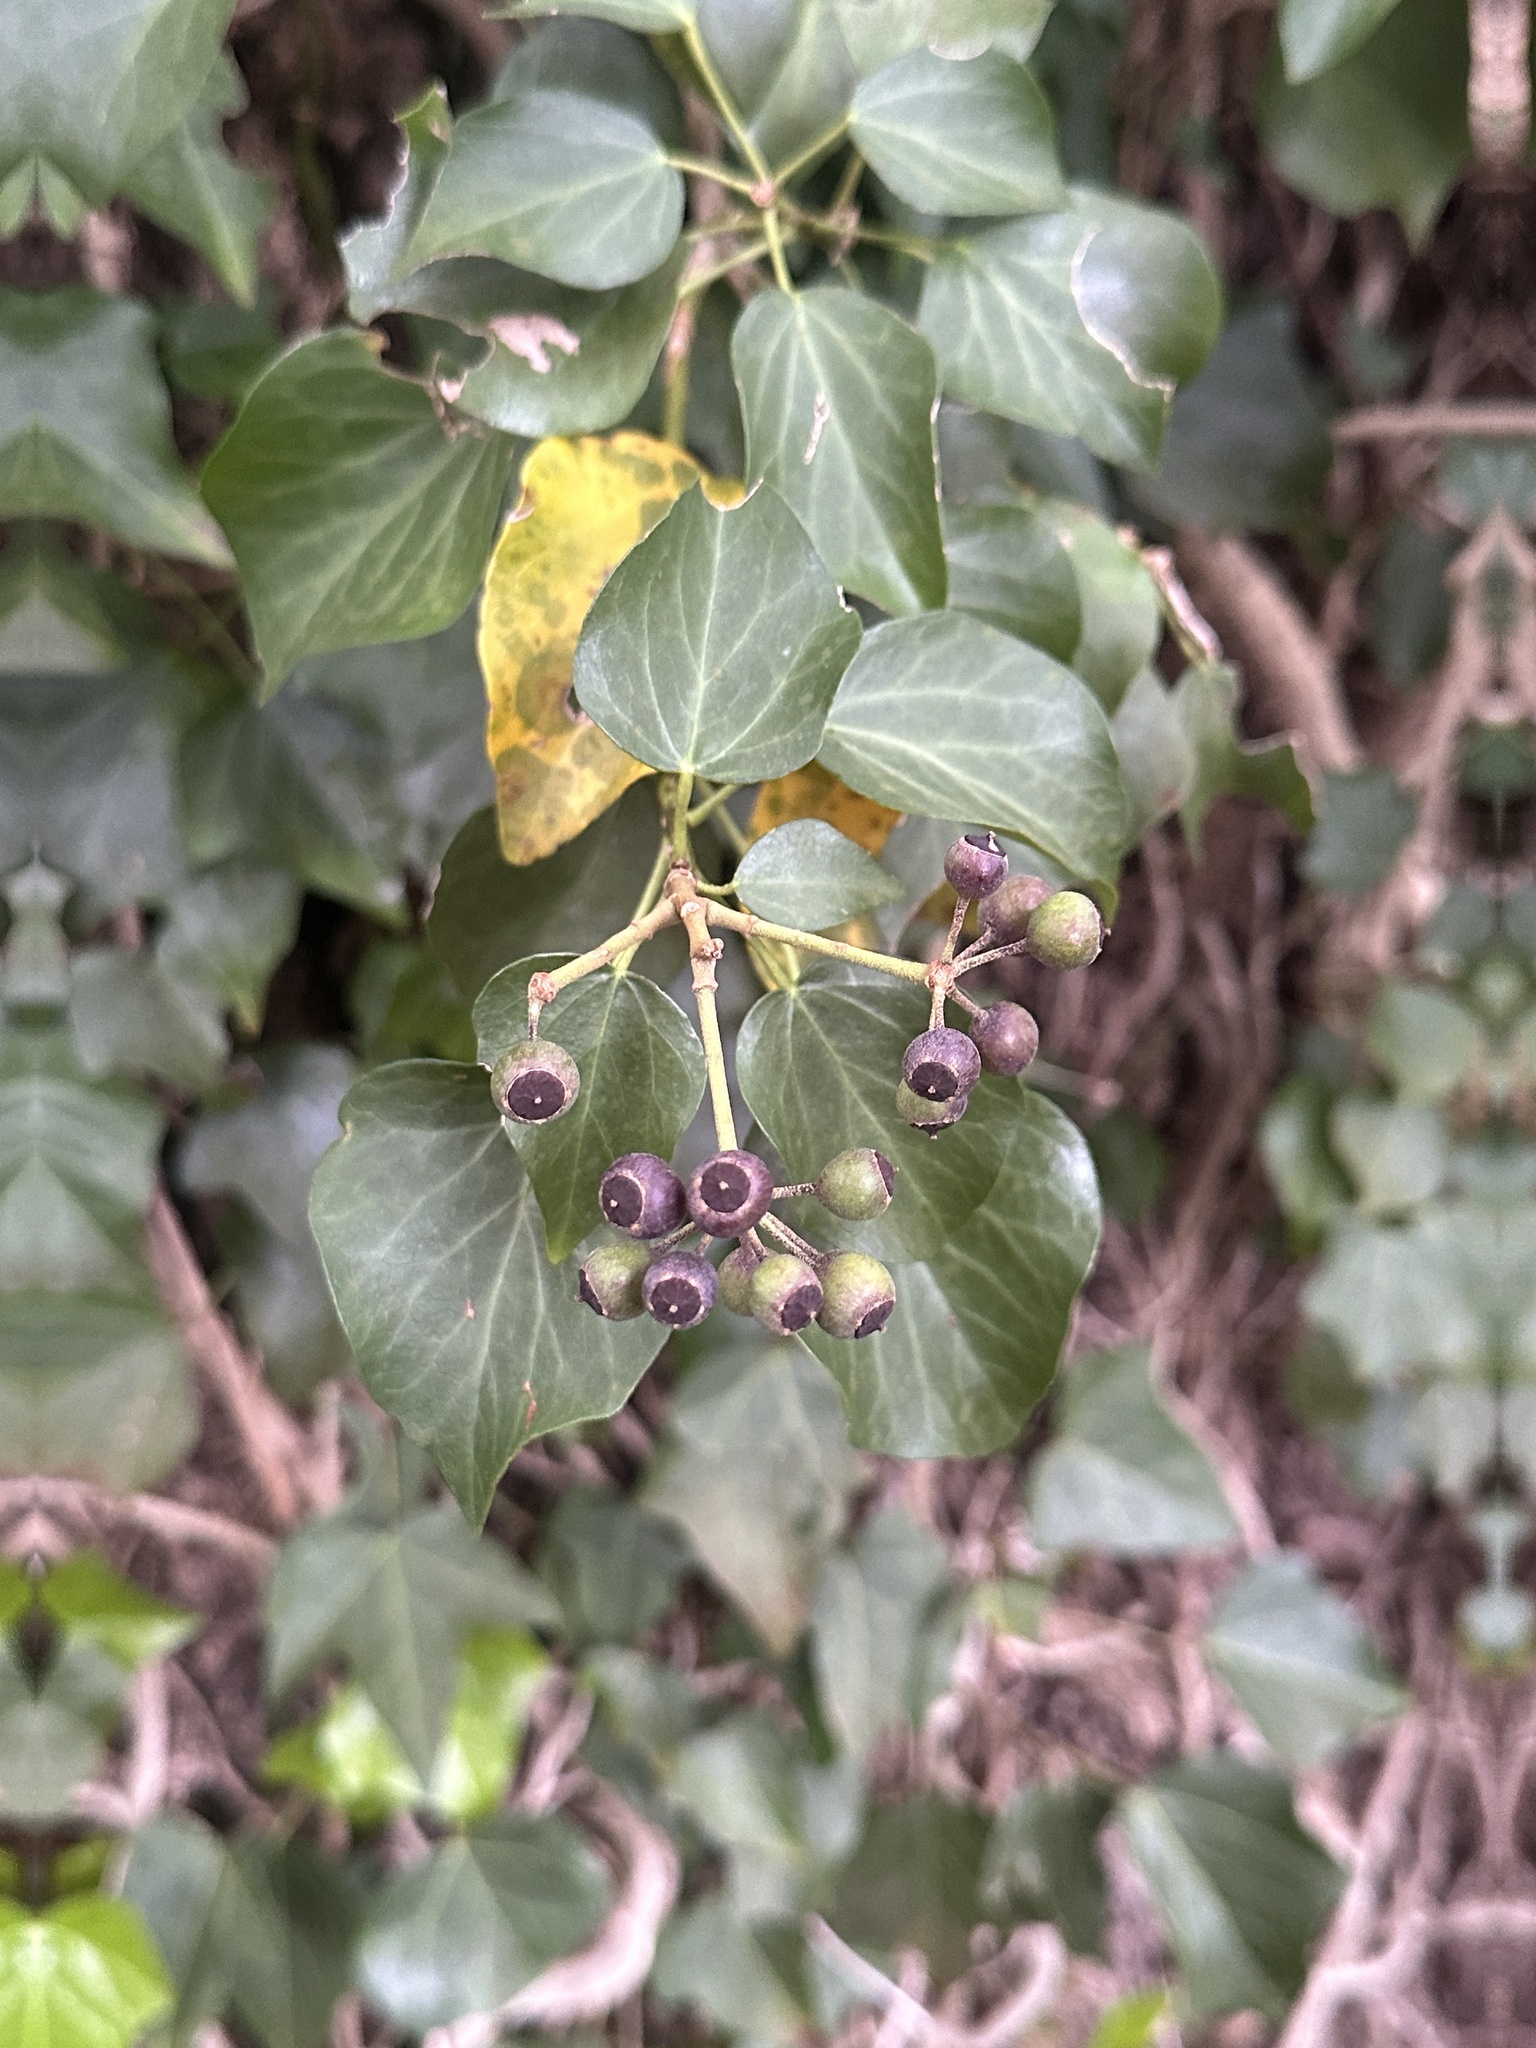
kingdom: Plantae
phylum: Tracheophyta
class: Magnoliopsida
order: Apiales
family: Araliaceae
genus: Hedera
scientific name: Hedera rhombea
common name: Japanese ivy
